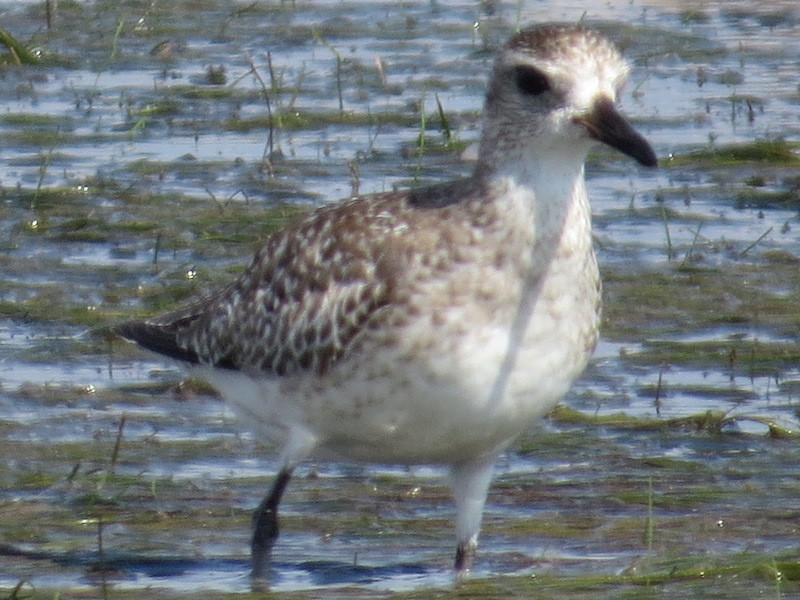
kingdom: Animalia
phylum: Chordata
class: Aves
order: Charadriiformes
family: Charadriidae
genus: Pluvialis
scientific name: Pluvialis squatarola
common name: Grey plover
